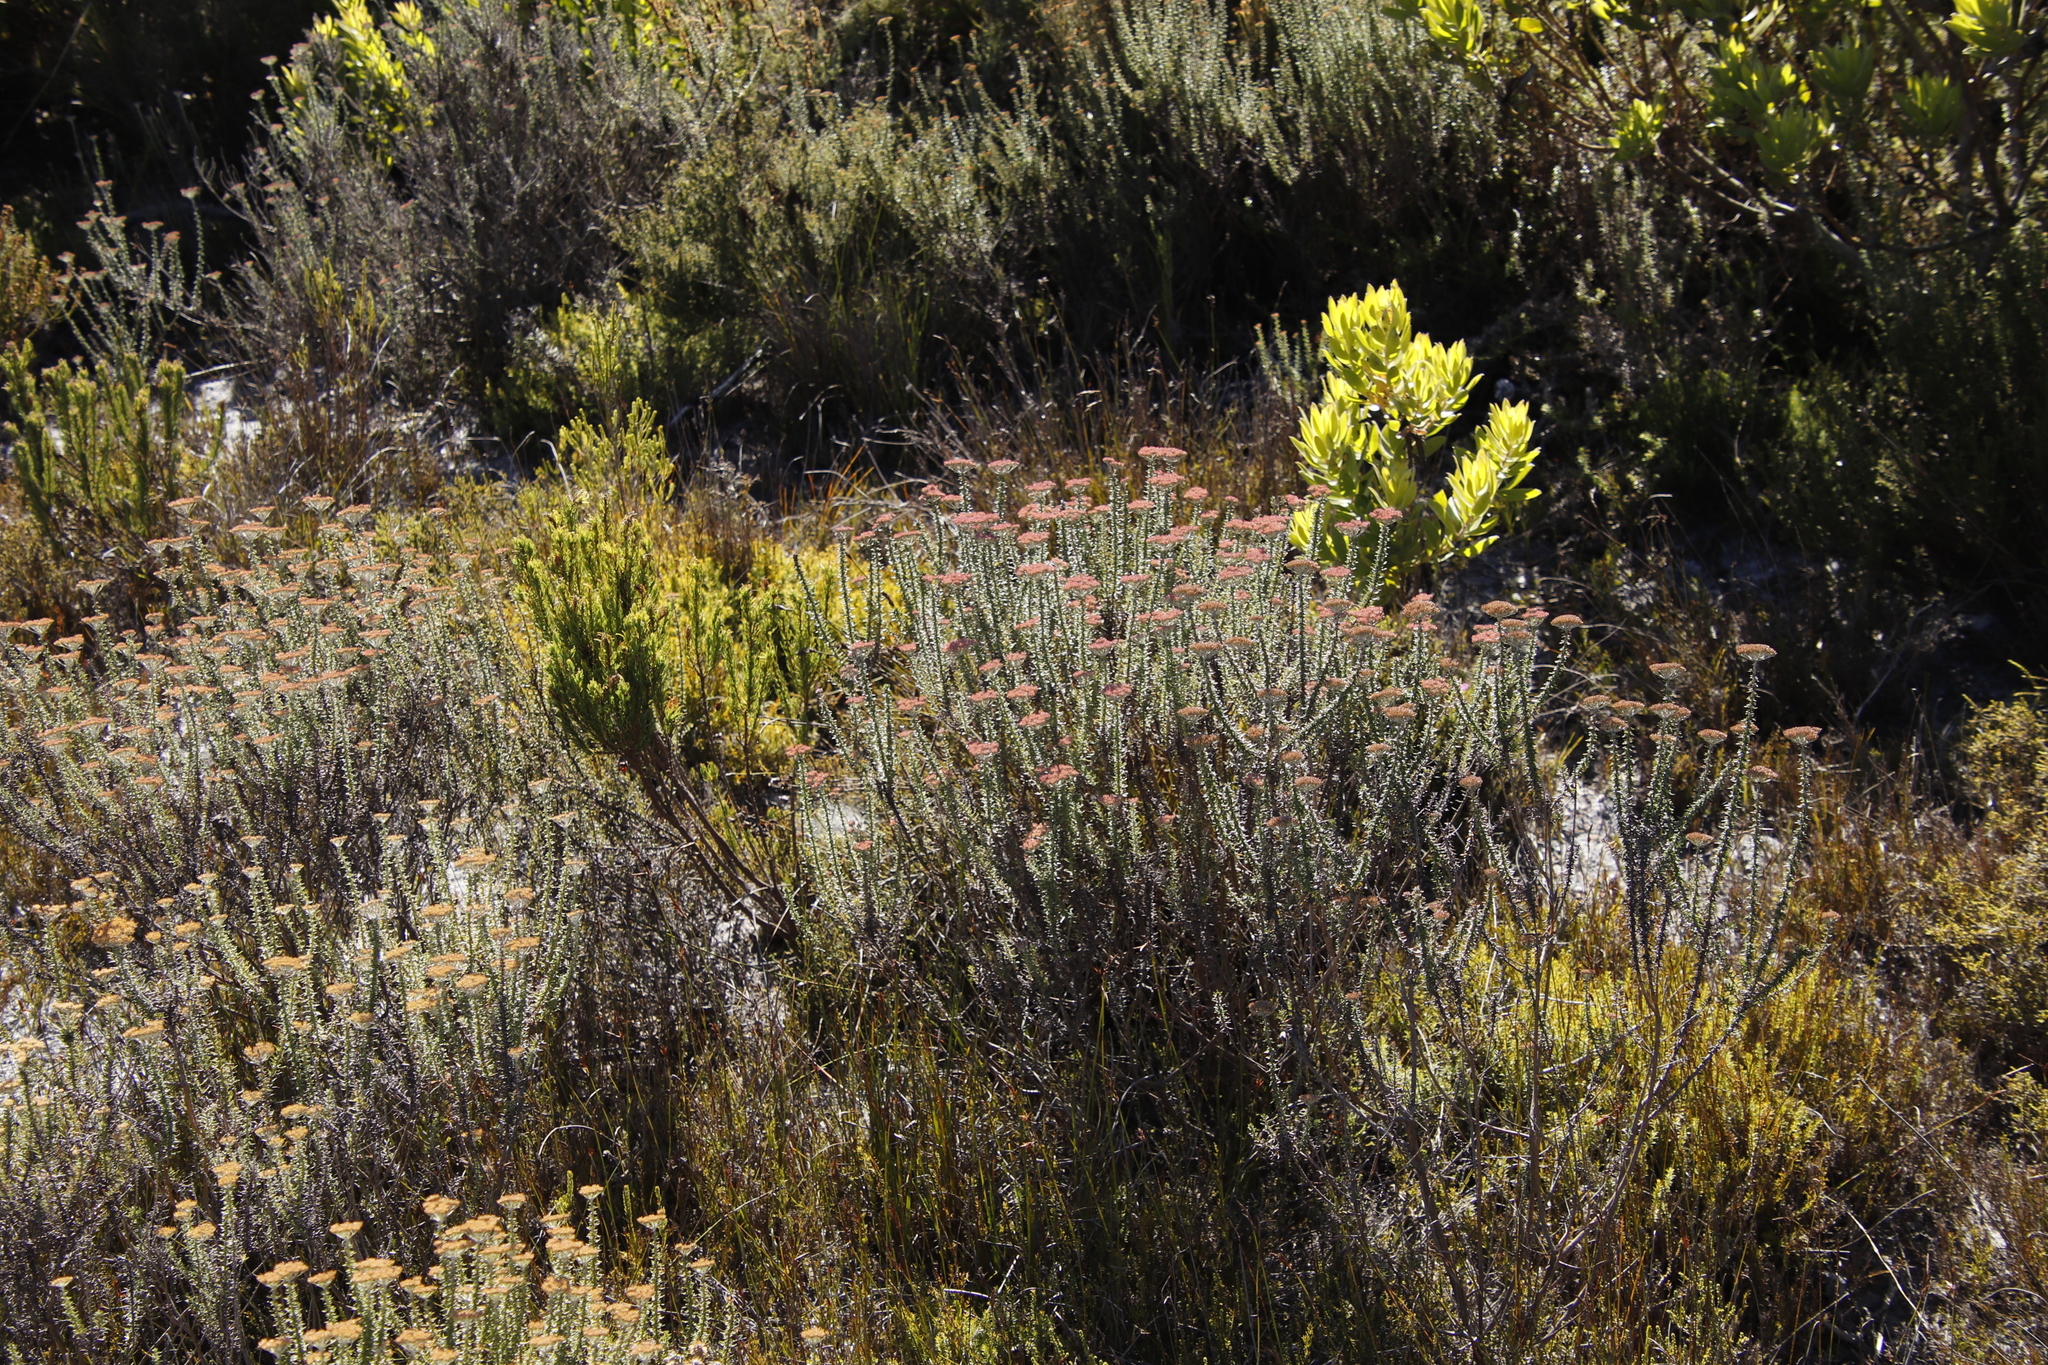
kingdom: Plantae
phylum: Tracheophyta
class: Magnoliopsida
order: Asterales
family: Asteraceae
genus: Metalasia
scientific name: Metalasia densa
